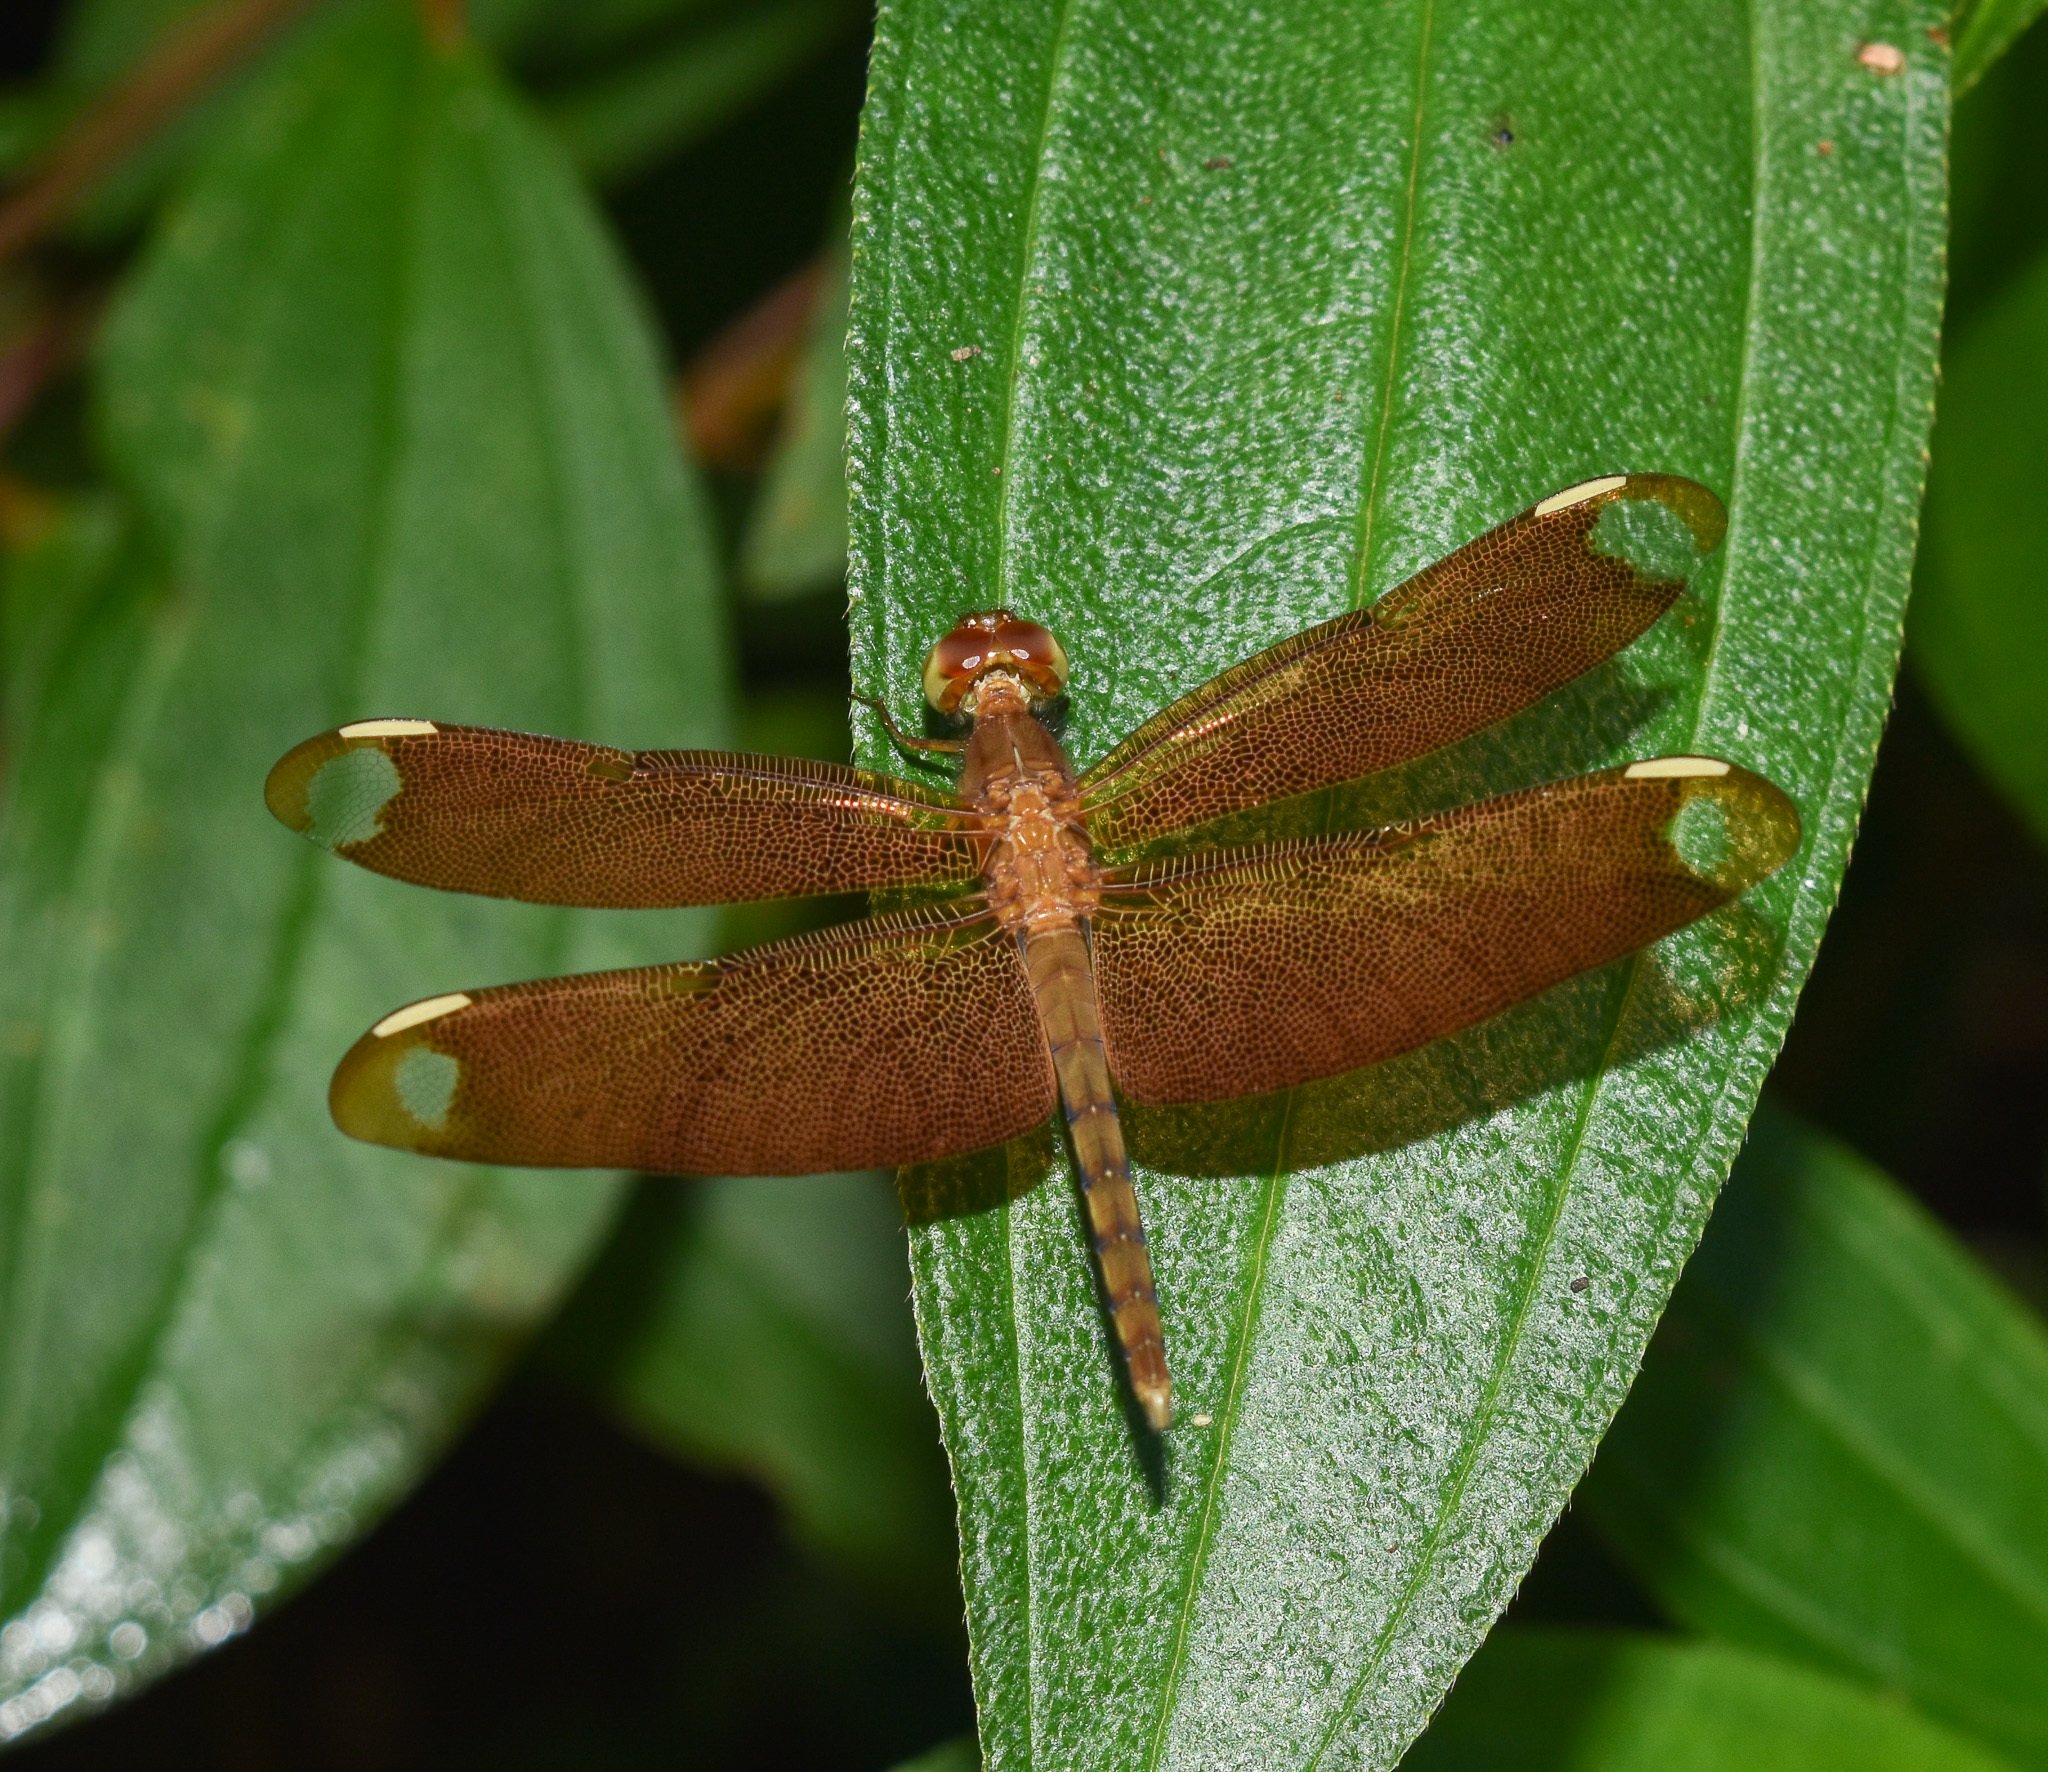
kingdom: Animalia
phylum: Arthropoda
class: Insecta
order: Odonata
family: Libellulidae
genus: Neurothemis
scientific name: Neurothemis fulvia
